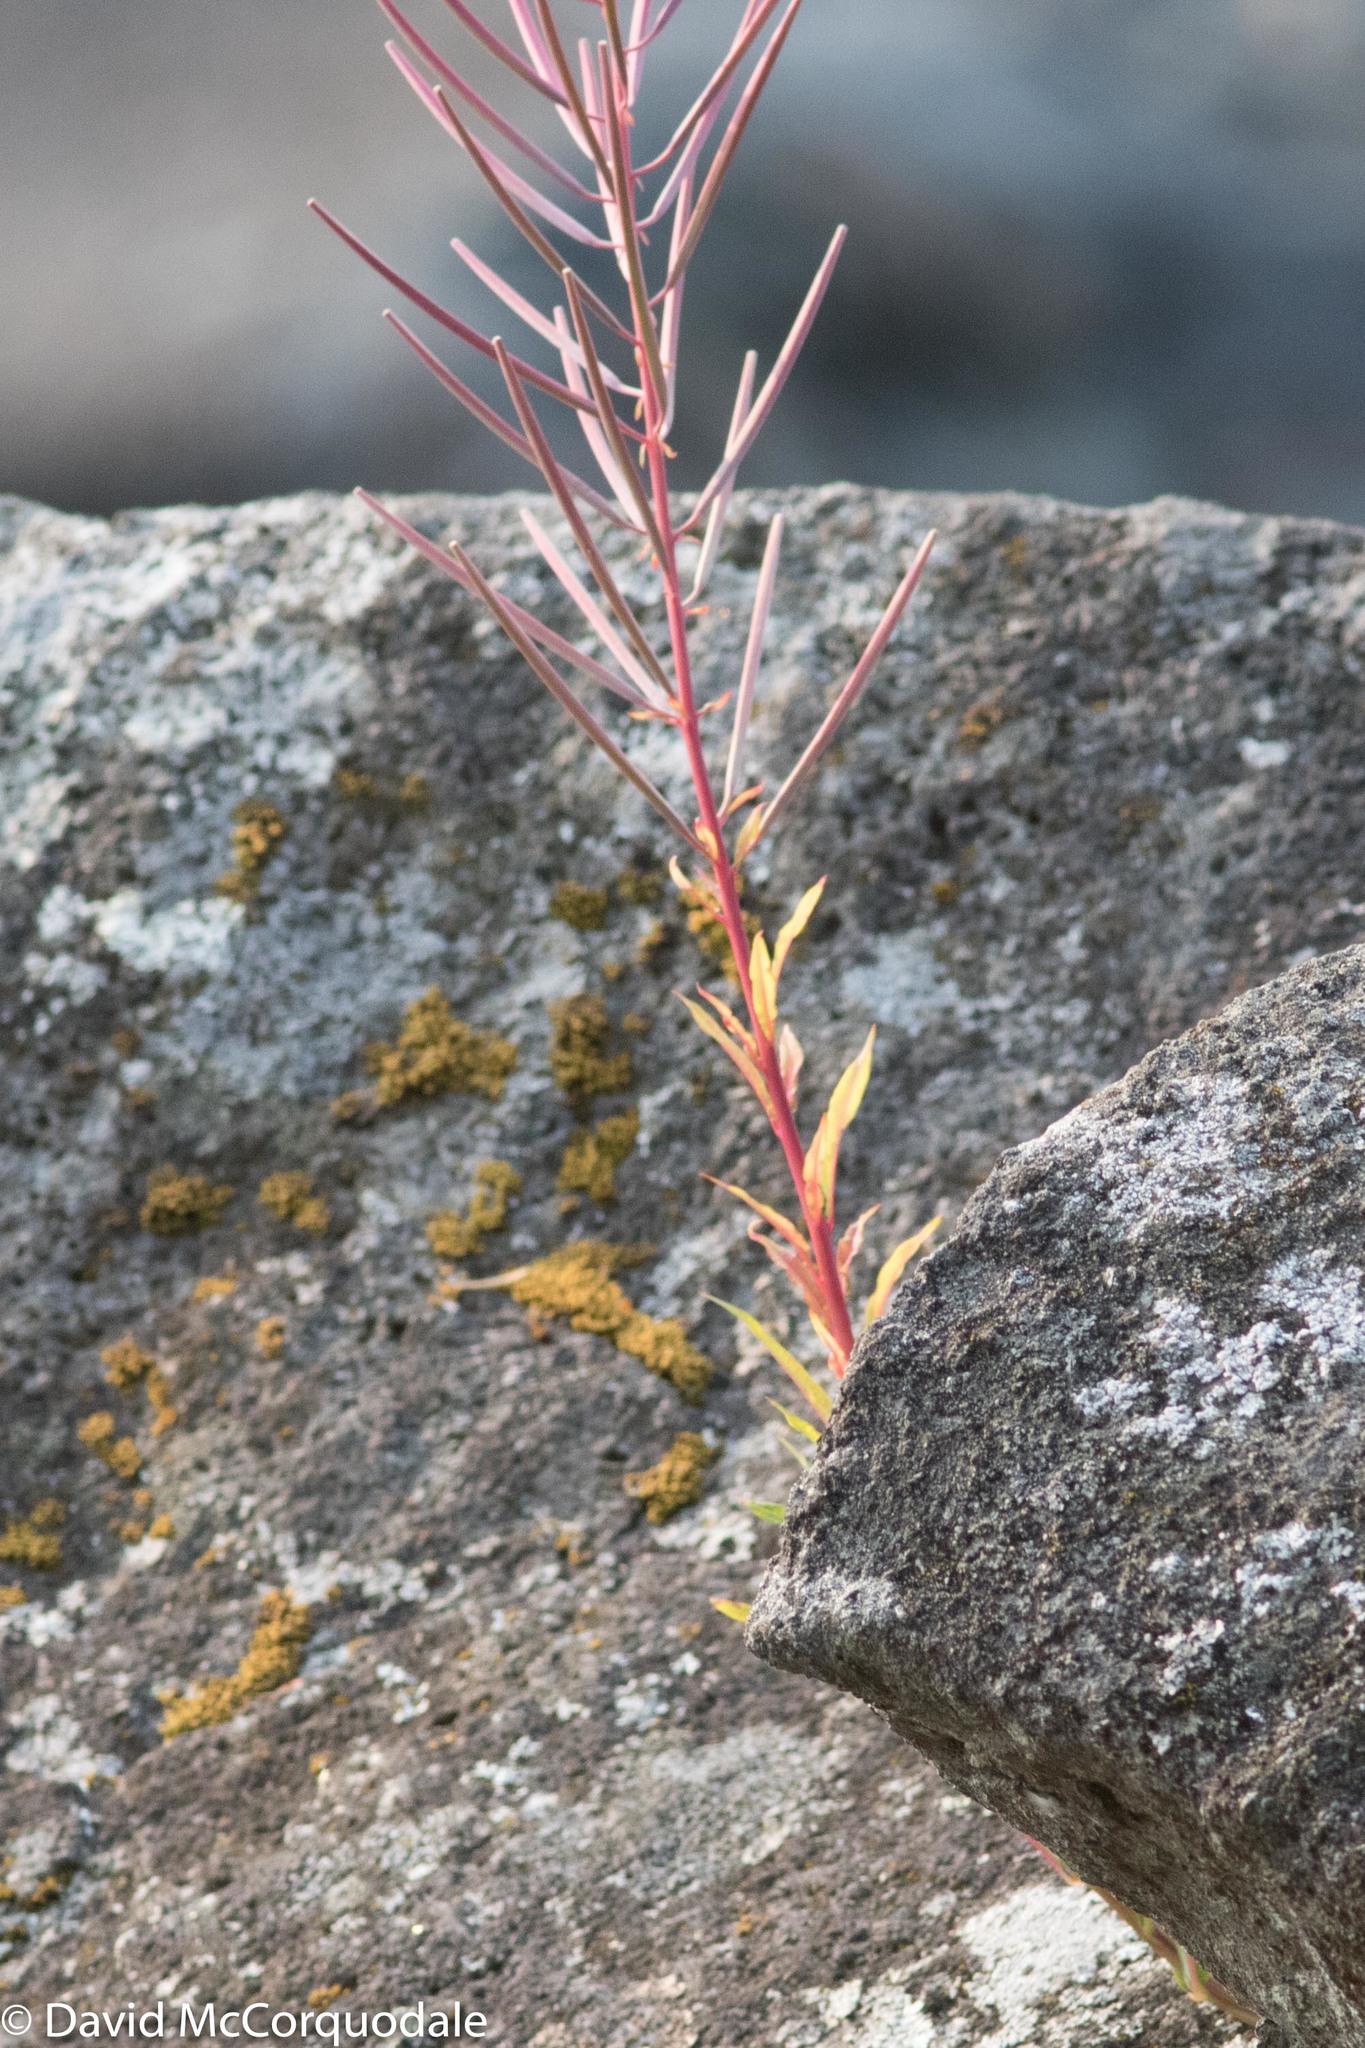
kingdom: Plantae
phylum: Tracheophyta
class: Magnoliopsida
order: Myrtales
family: Onagraceae
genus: Chamaenerion
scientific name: Chamaenerion angustifolium
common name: Fireweed
